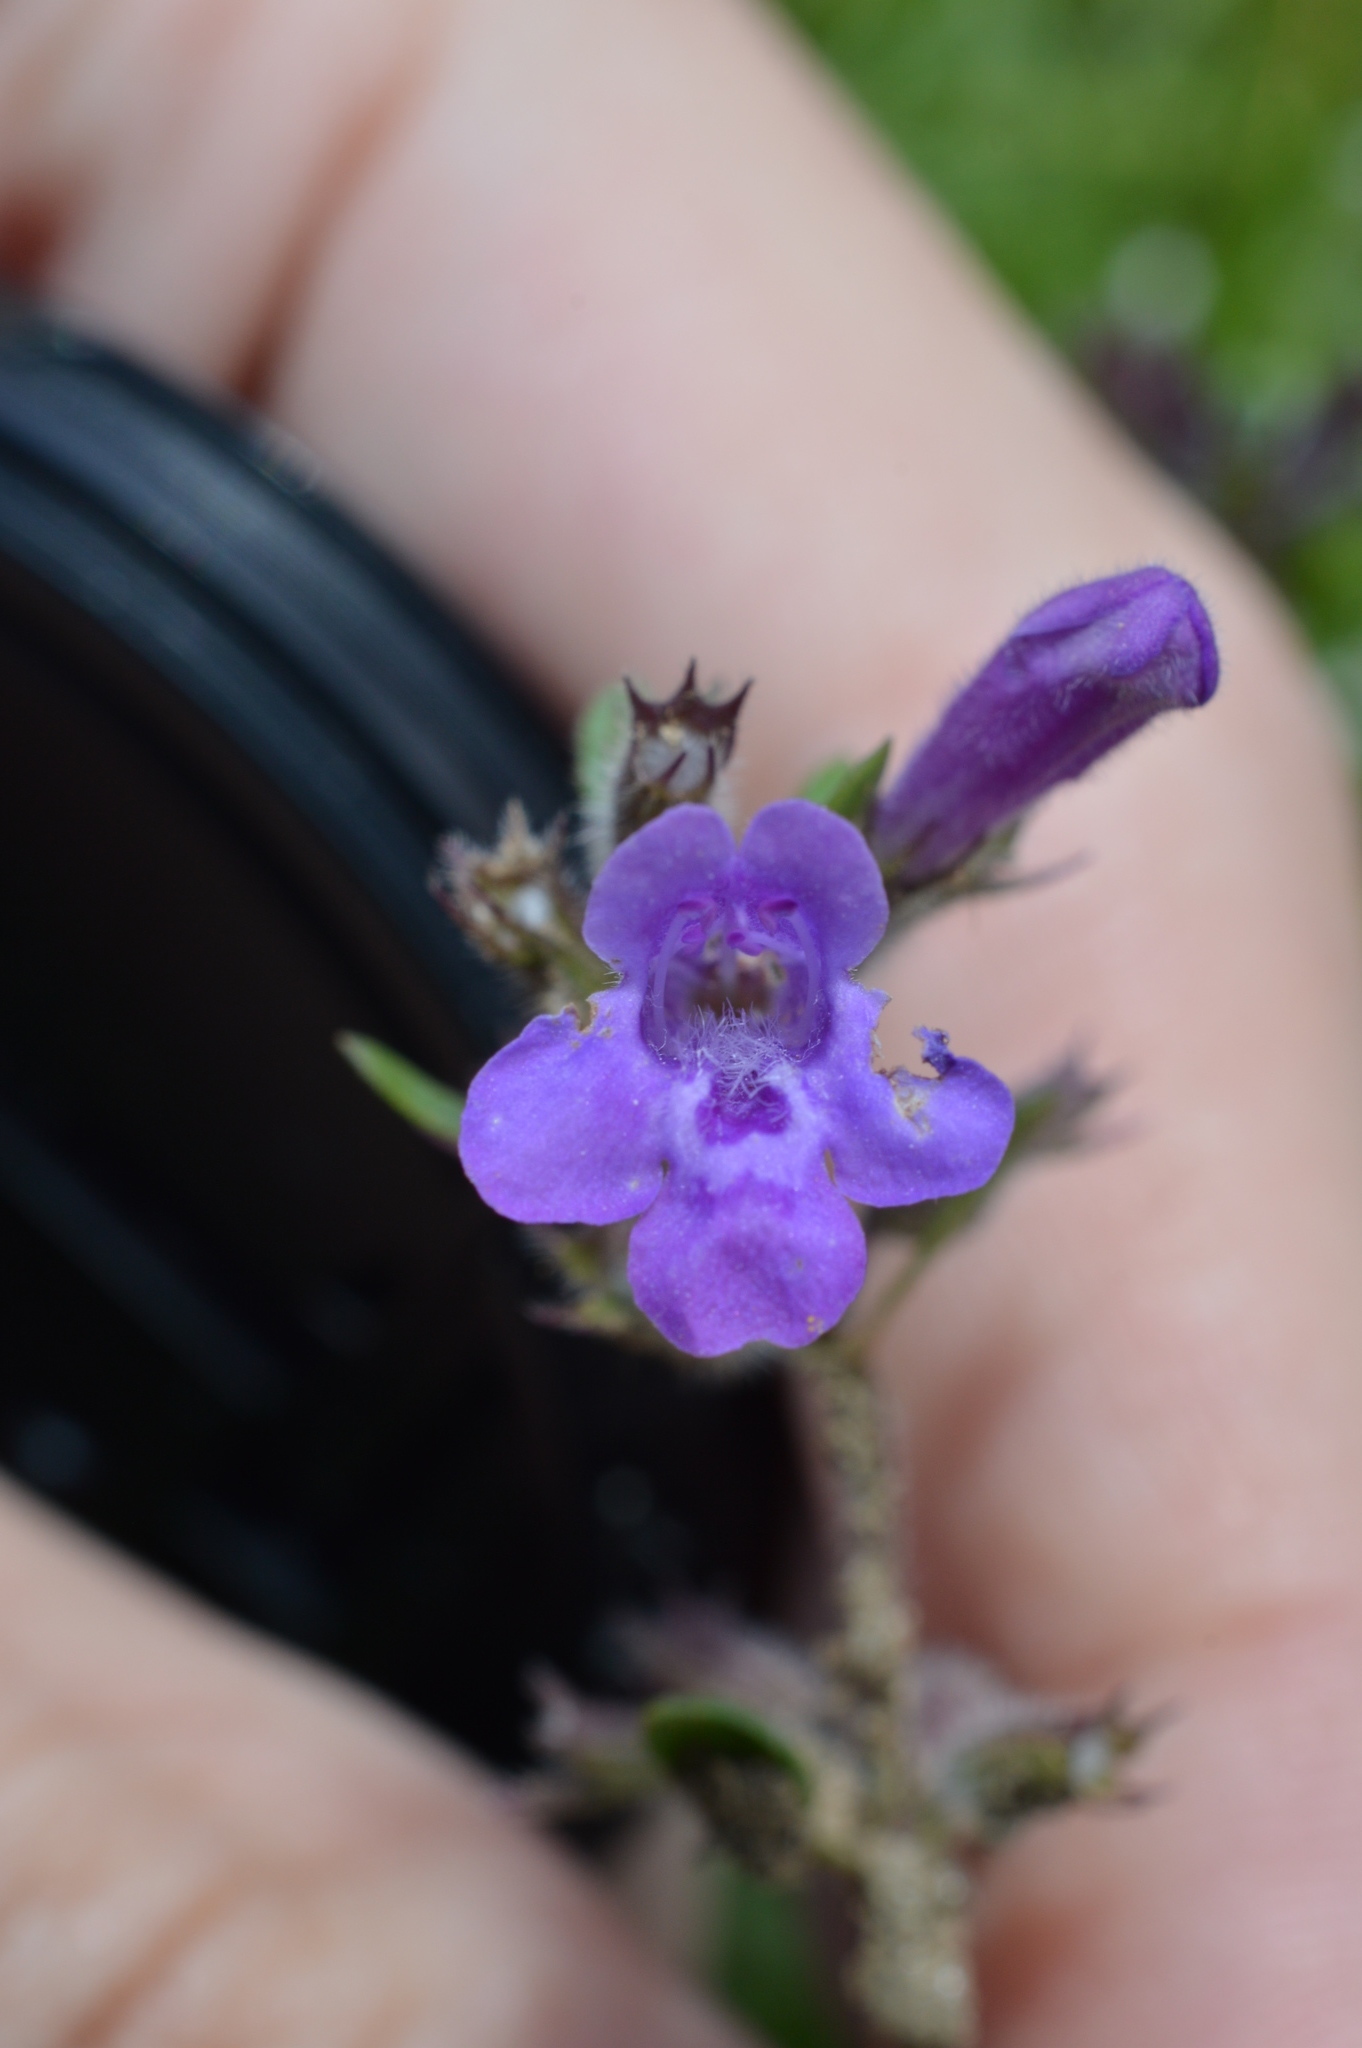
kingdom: Plantae
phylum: Tracheophyta
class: Magnoliopsida
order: Lamiales
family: Lamiaceae
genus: Clinopodium
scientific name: Clinopodium alpinum
